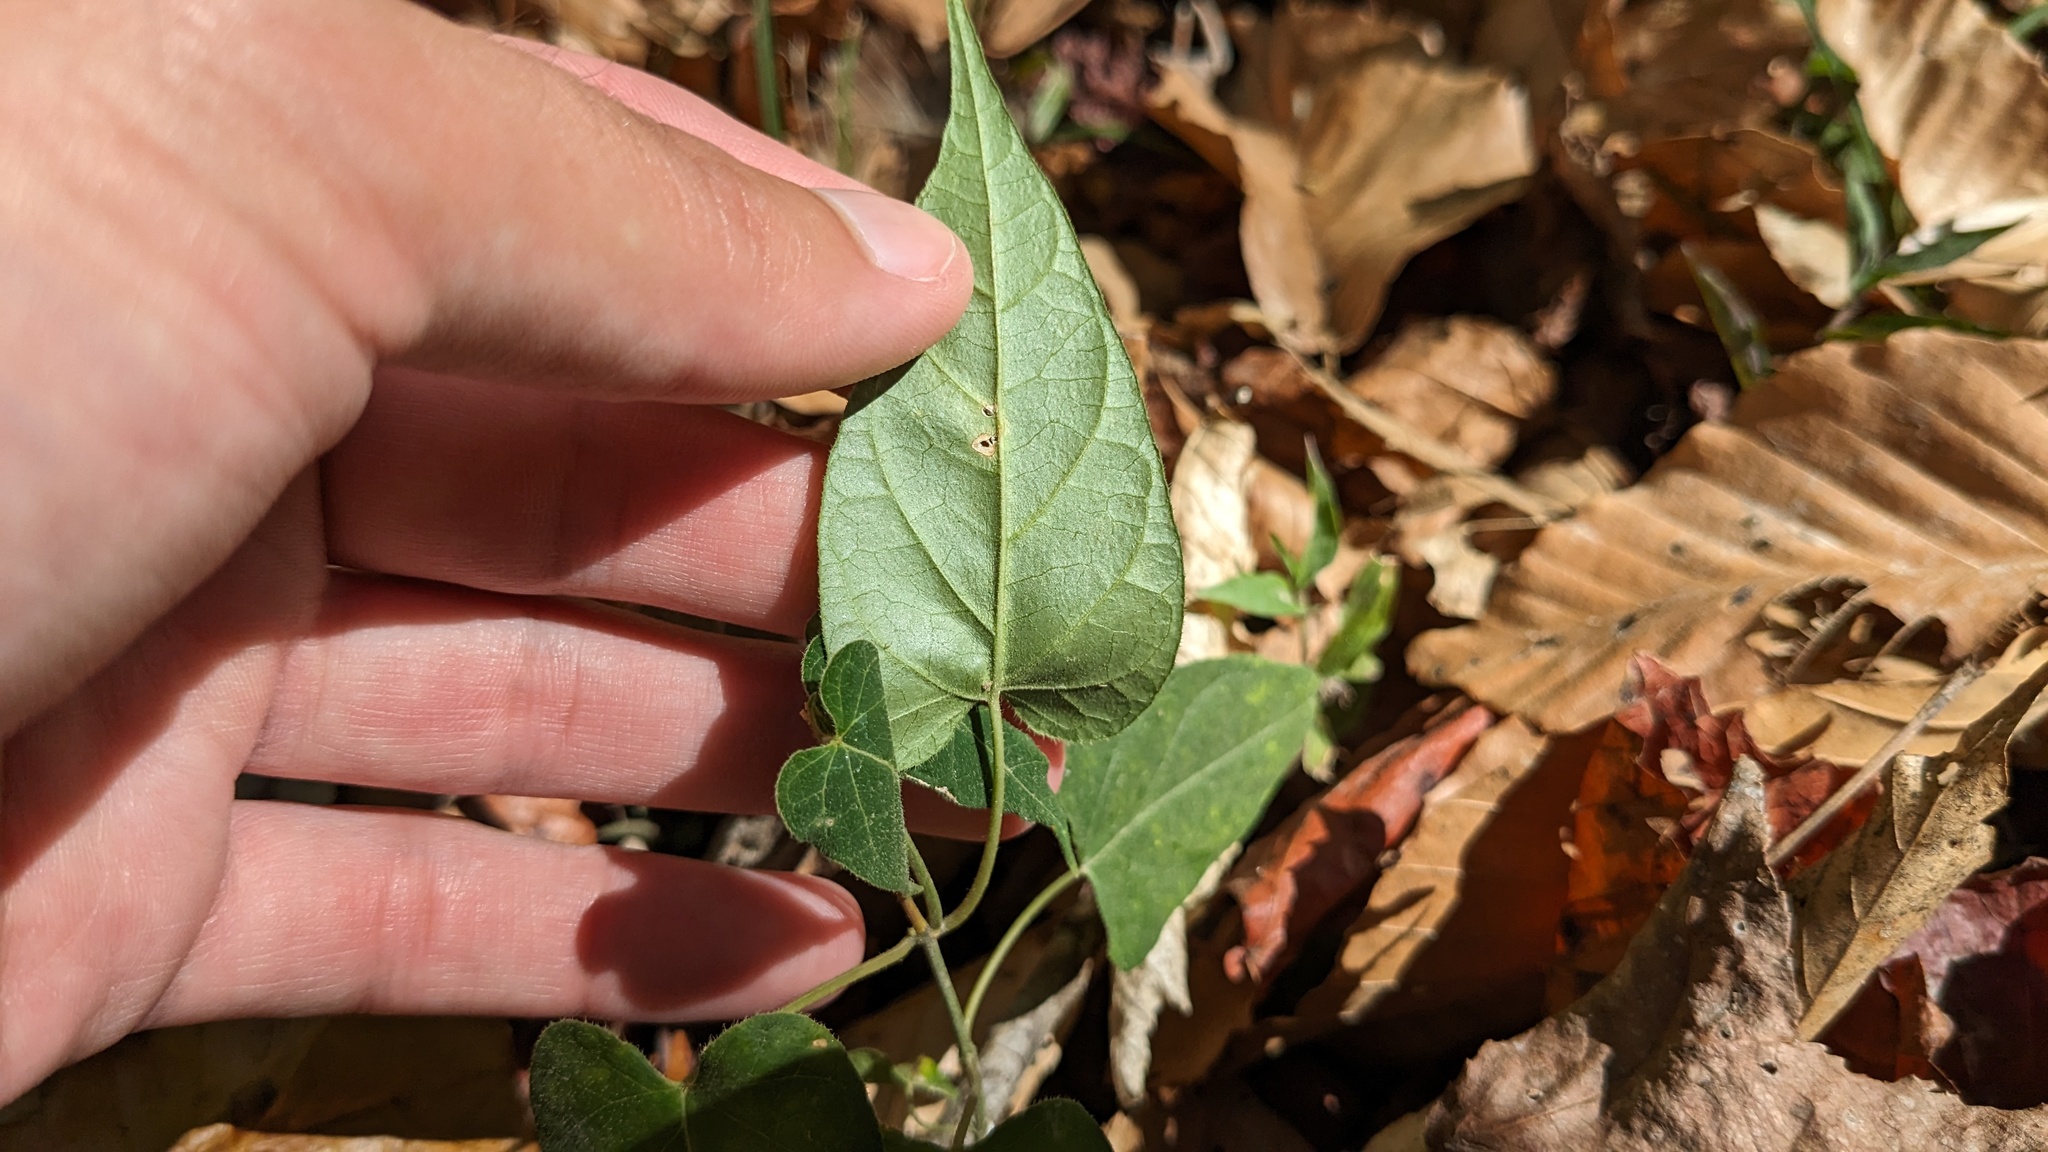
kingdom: Plantae
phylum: Tracheophyta
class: Magnoliopsida
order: Gentianales
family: Apocynaceae
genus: Gonolobus
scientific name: Gonolobus suberosus
